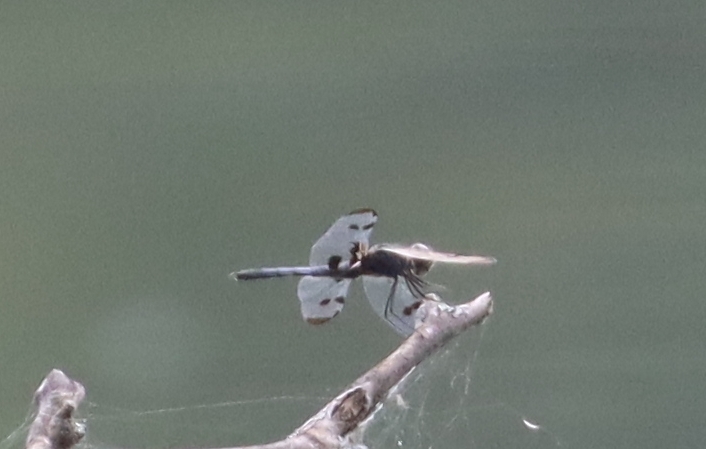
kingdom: Animalia
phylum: Arthropoda
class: Insecta
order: Odonata
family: Libellulidae
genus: Celithemis
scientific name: Celithemis fasciata
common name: Banded pennant
